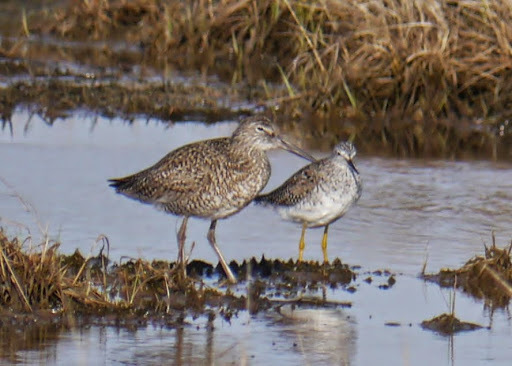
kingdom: Animalia
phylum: Chordata
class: Aves
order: Charadriiformes
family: Scolopacidae
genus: Tringa
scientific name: Tringa semipalmata
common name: Willet
